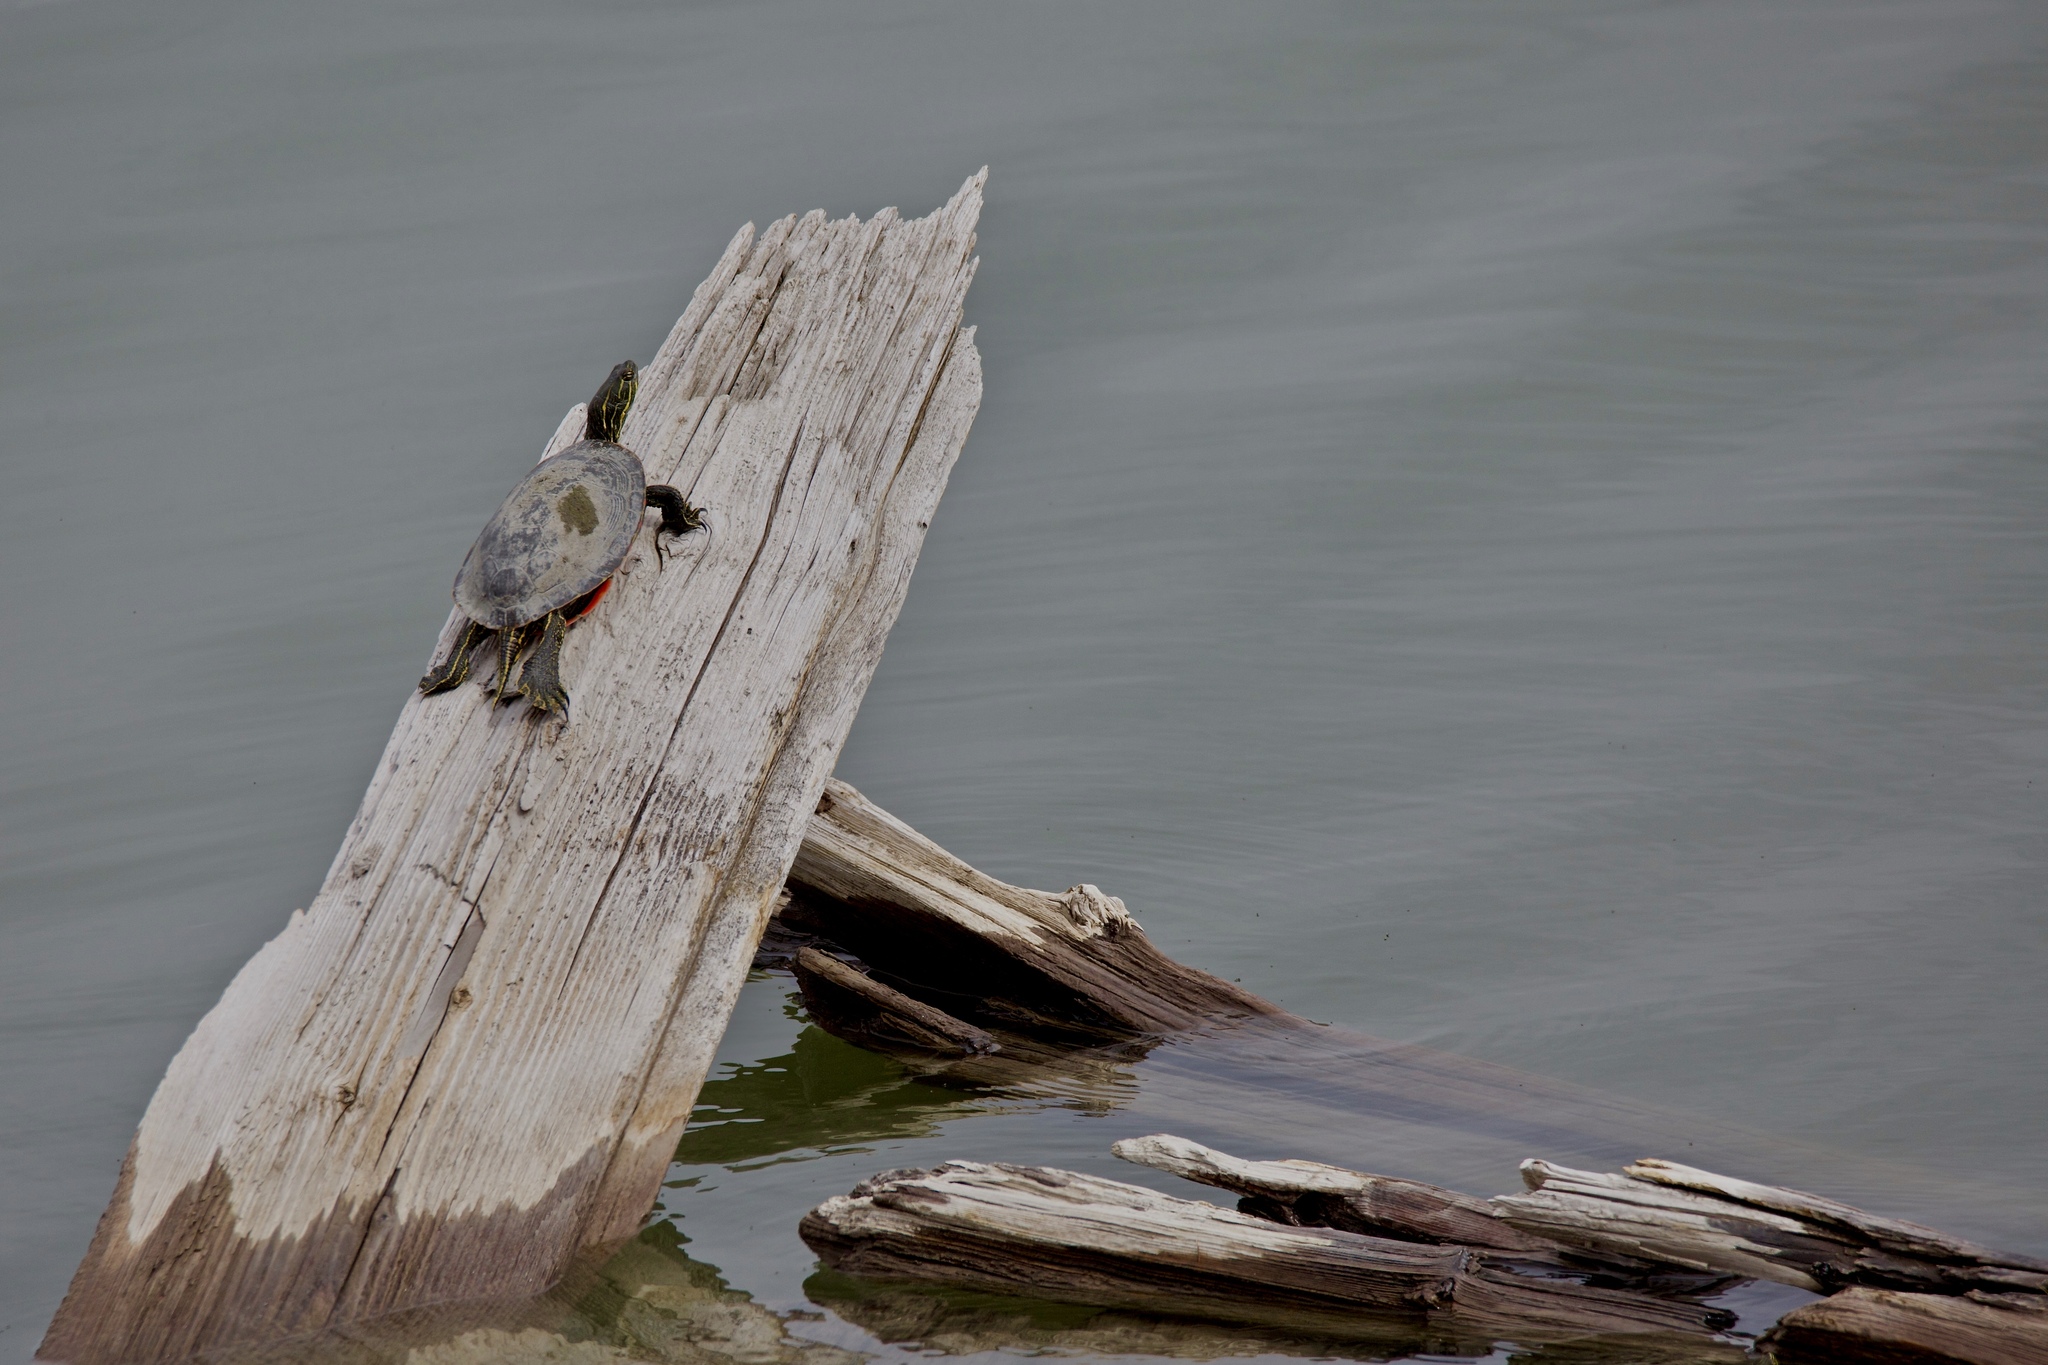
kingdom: Animalia
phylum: Chordata
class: Testudines
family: Emydidae
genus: Chrysemys
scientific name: Chrysemys picta
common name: Painted turtle
